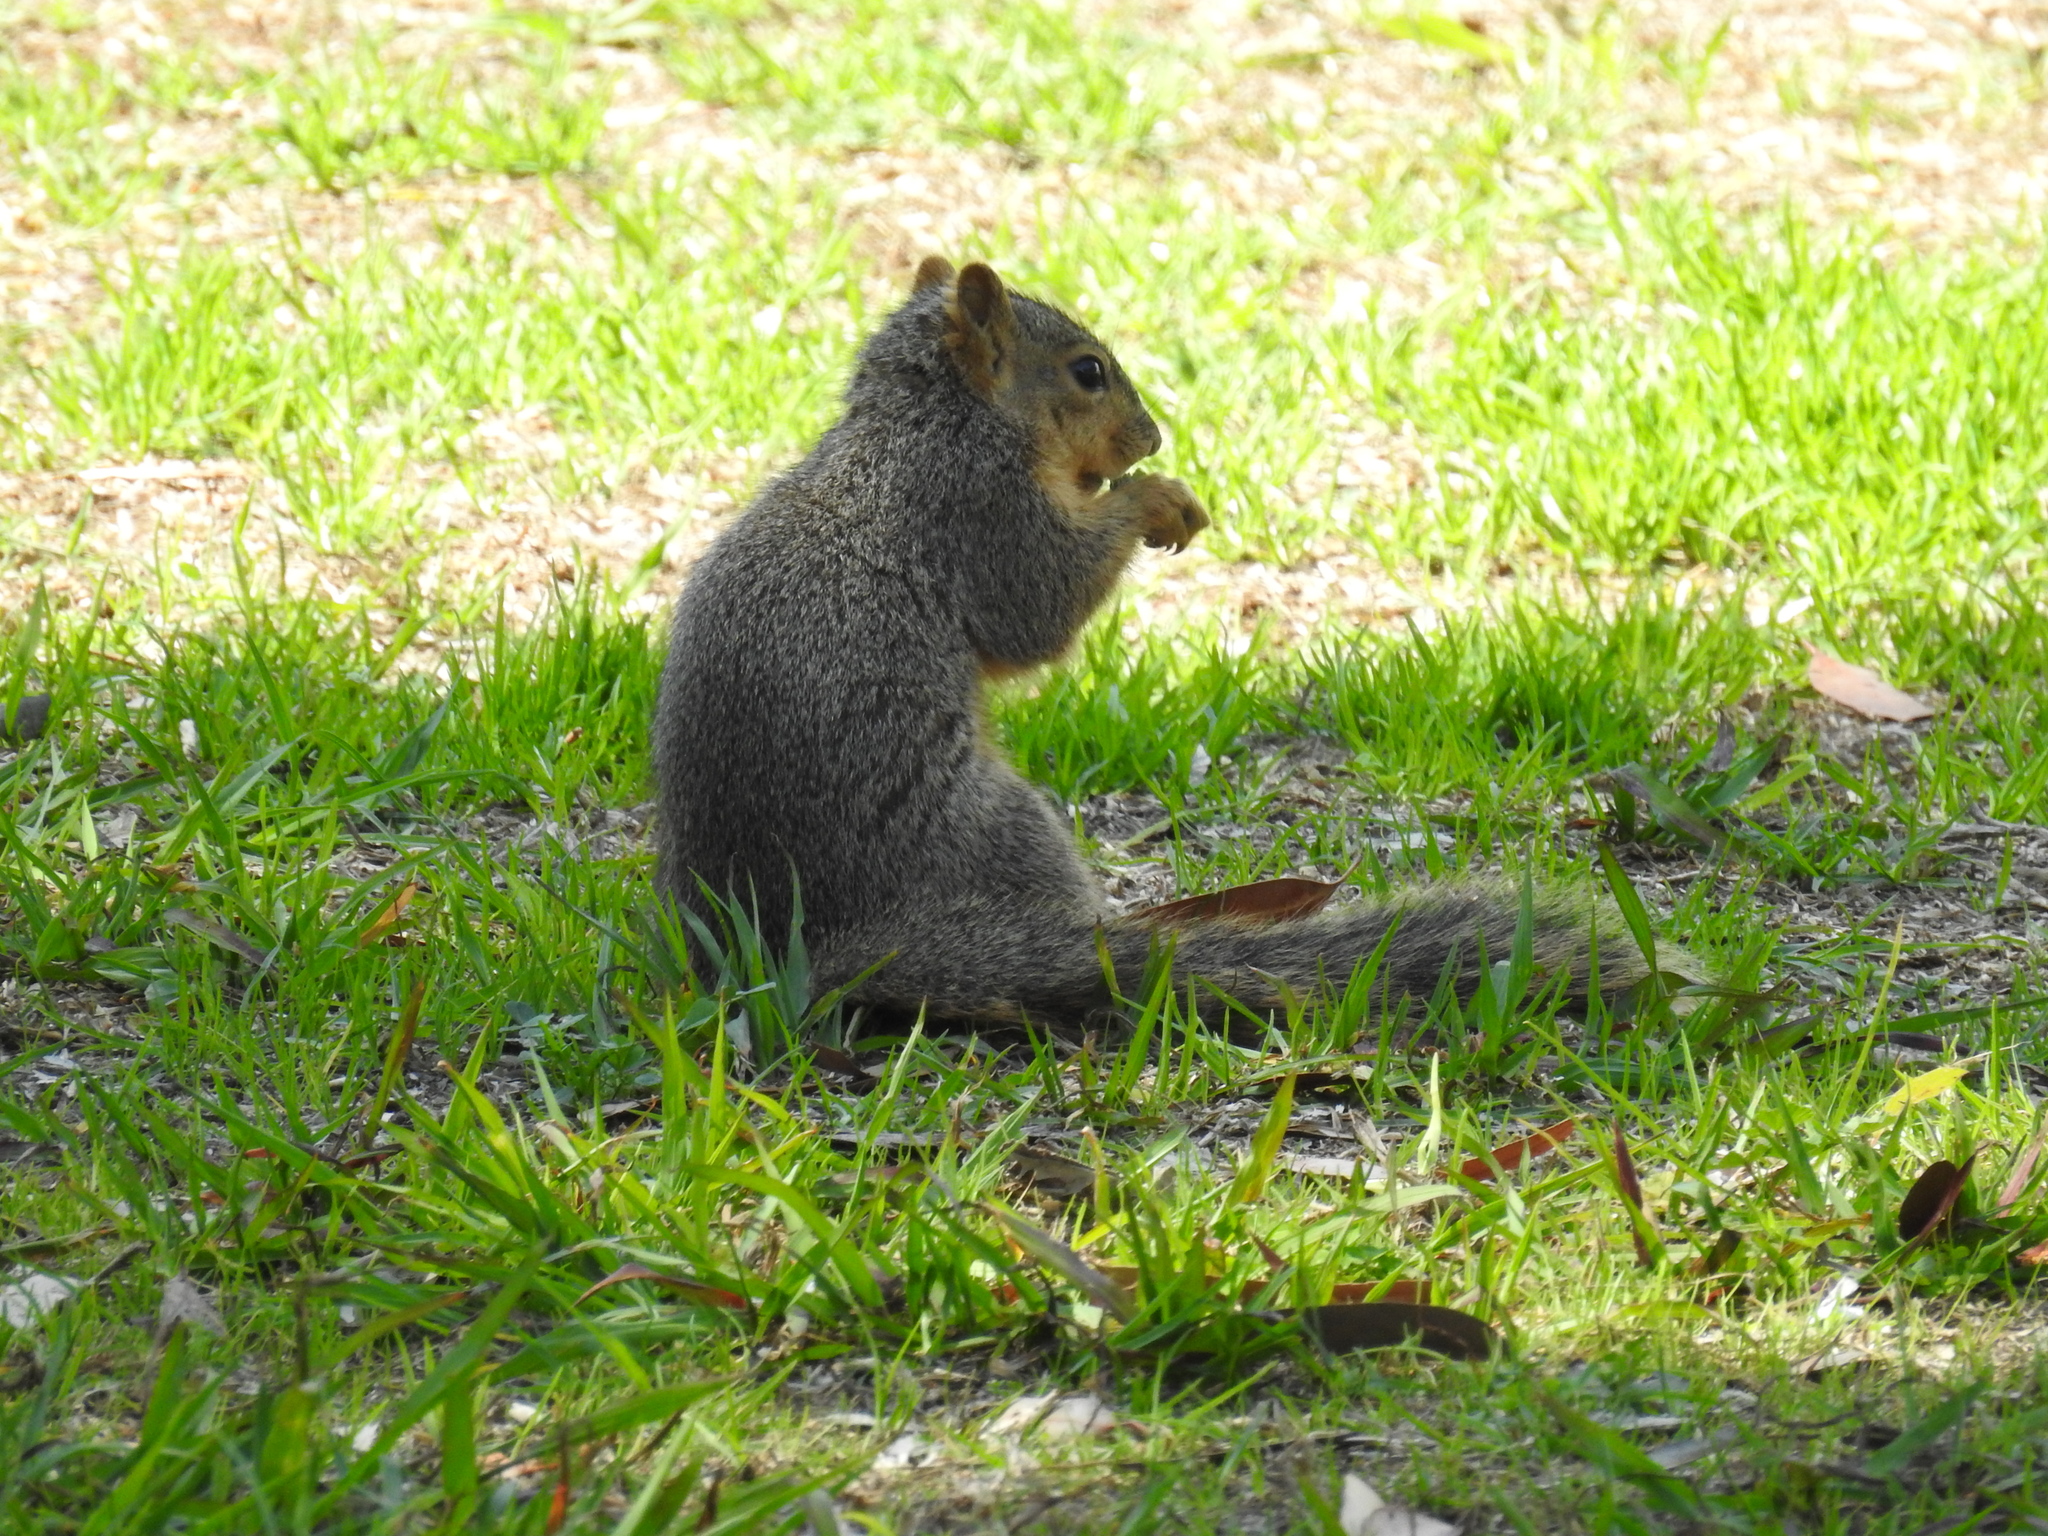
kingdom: Animalia
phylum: Chordata
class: Mammalia
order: Rodentia
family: Sciuridae
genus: Sciurus
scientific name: Sciurus niger
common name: Fox squirrel
